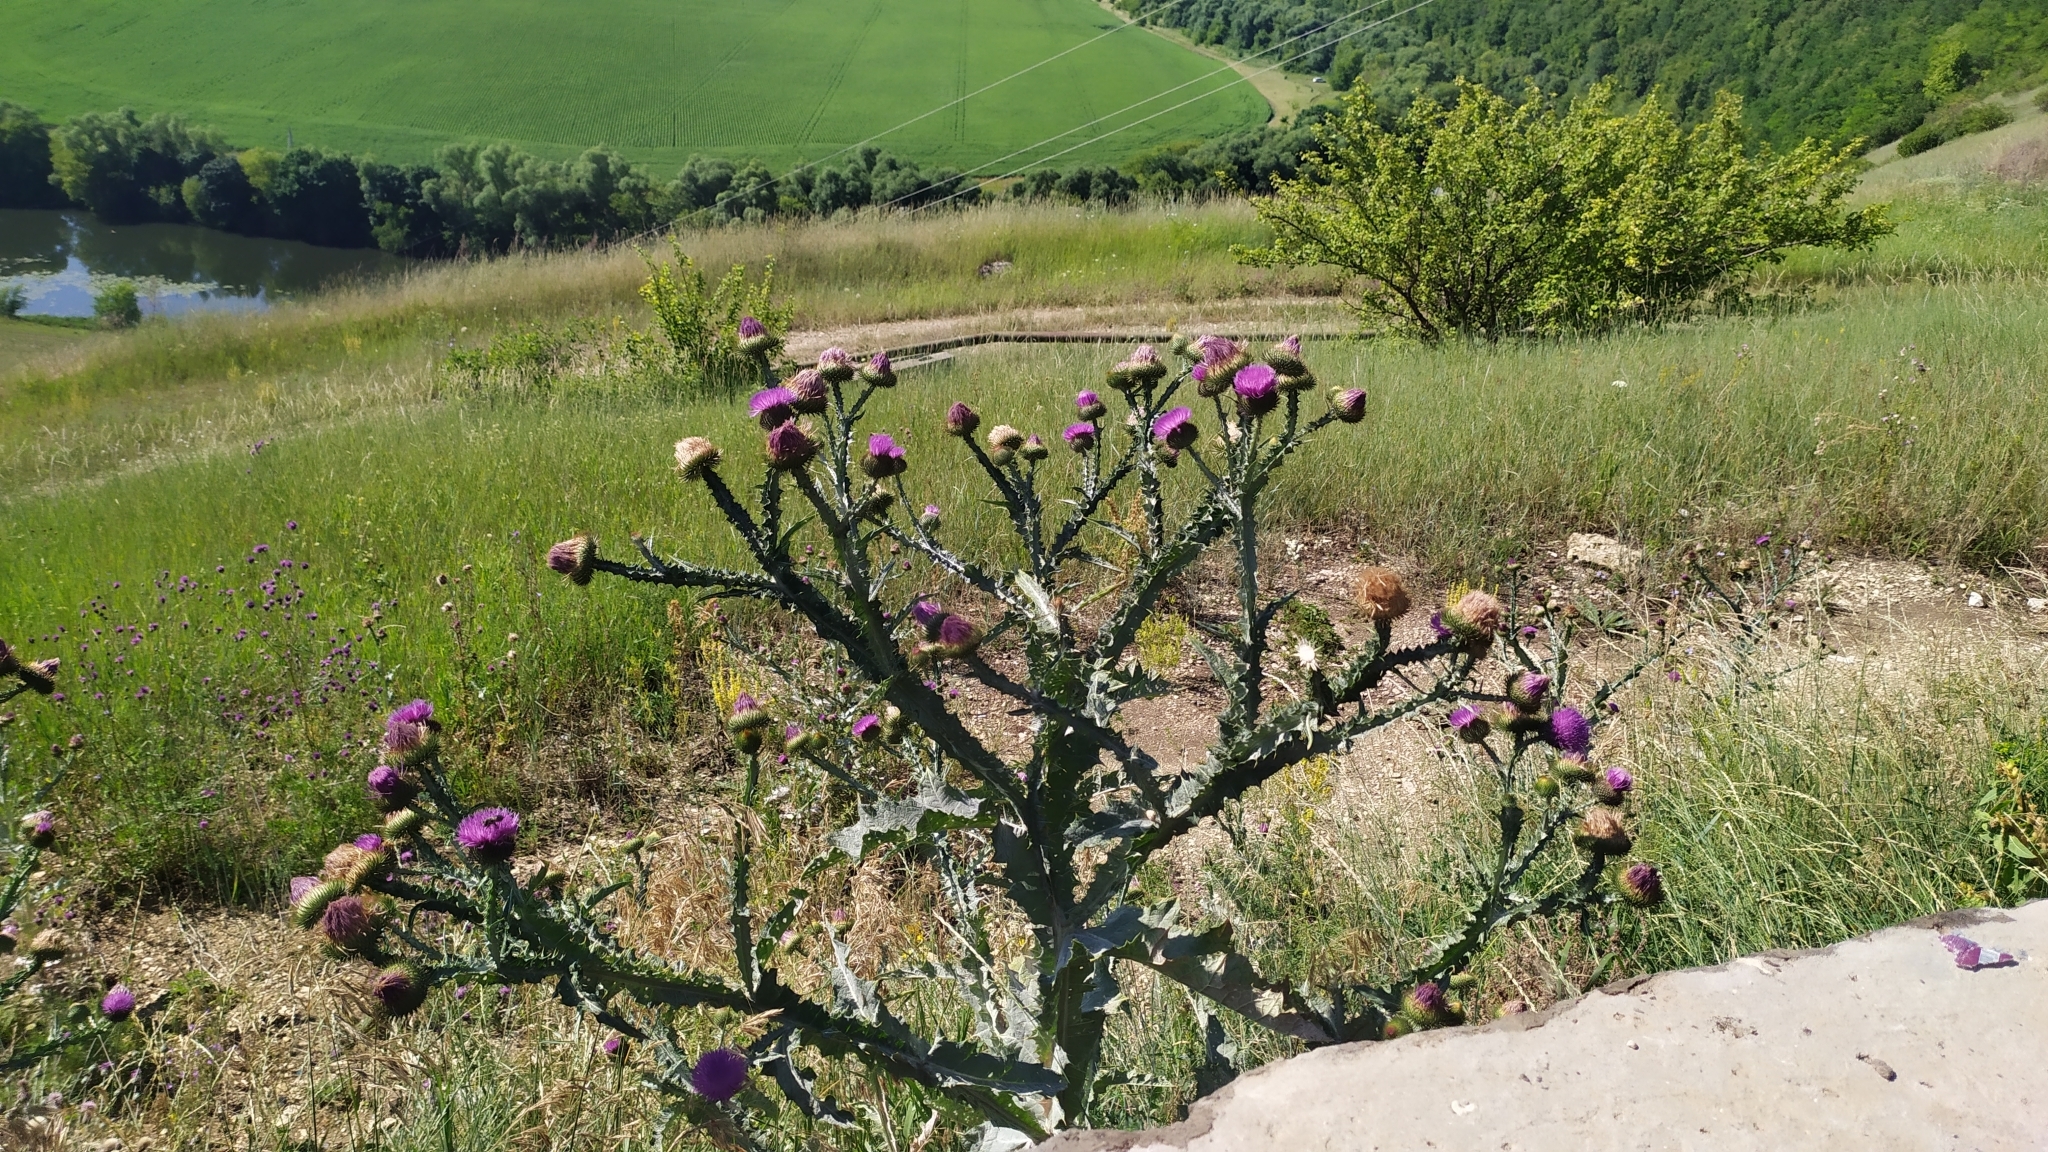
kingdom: Plantae
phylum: Tracheophyta
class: Magnoliopsida
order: Asterales
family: Asteraceae
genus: Onopordum
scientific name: Onopordum acanthium
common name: Scotch thistle
